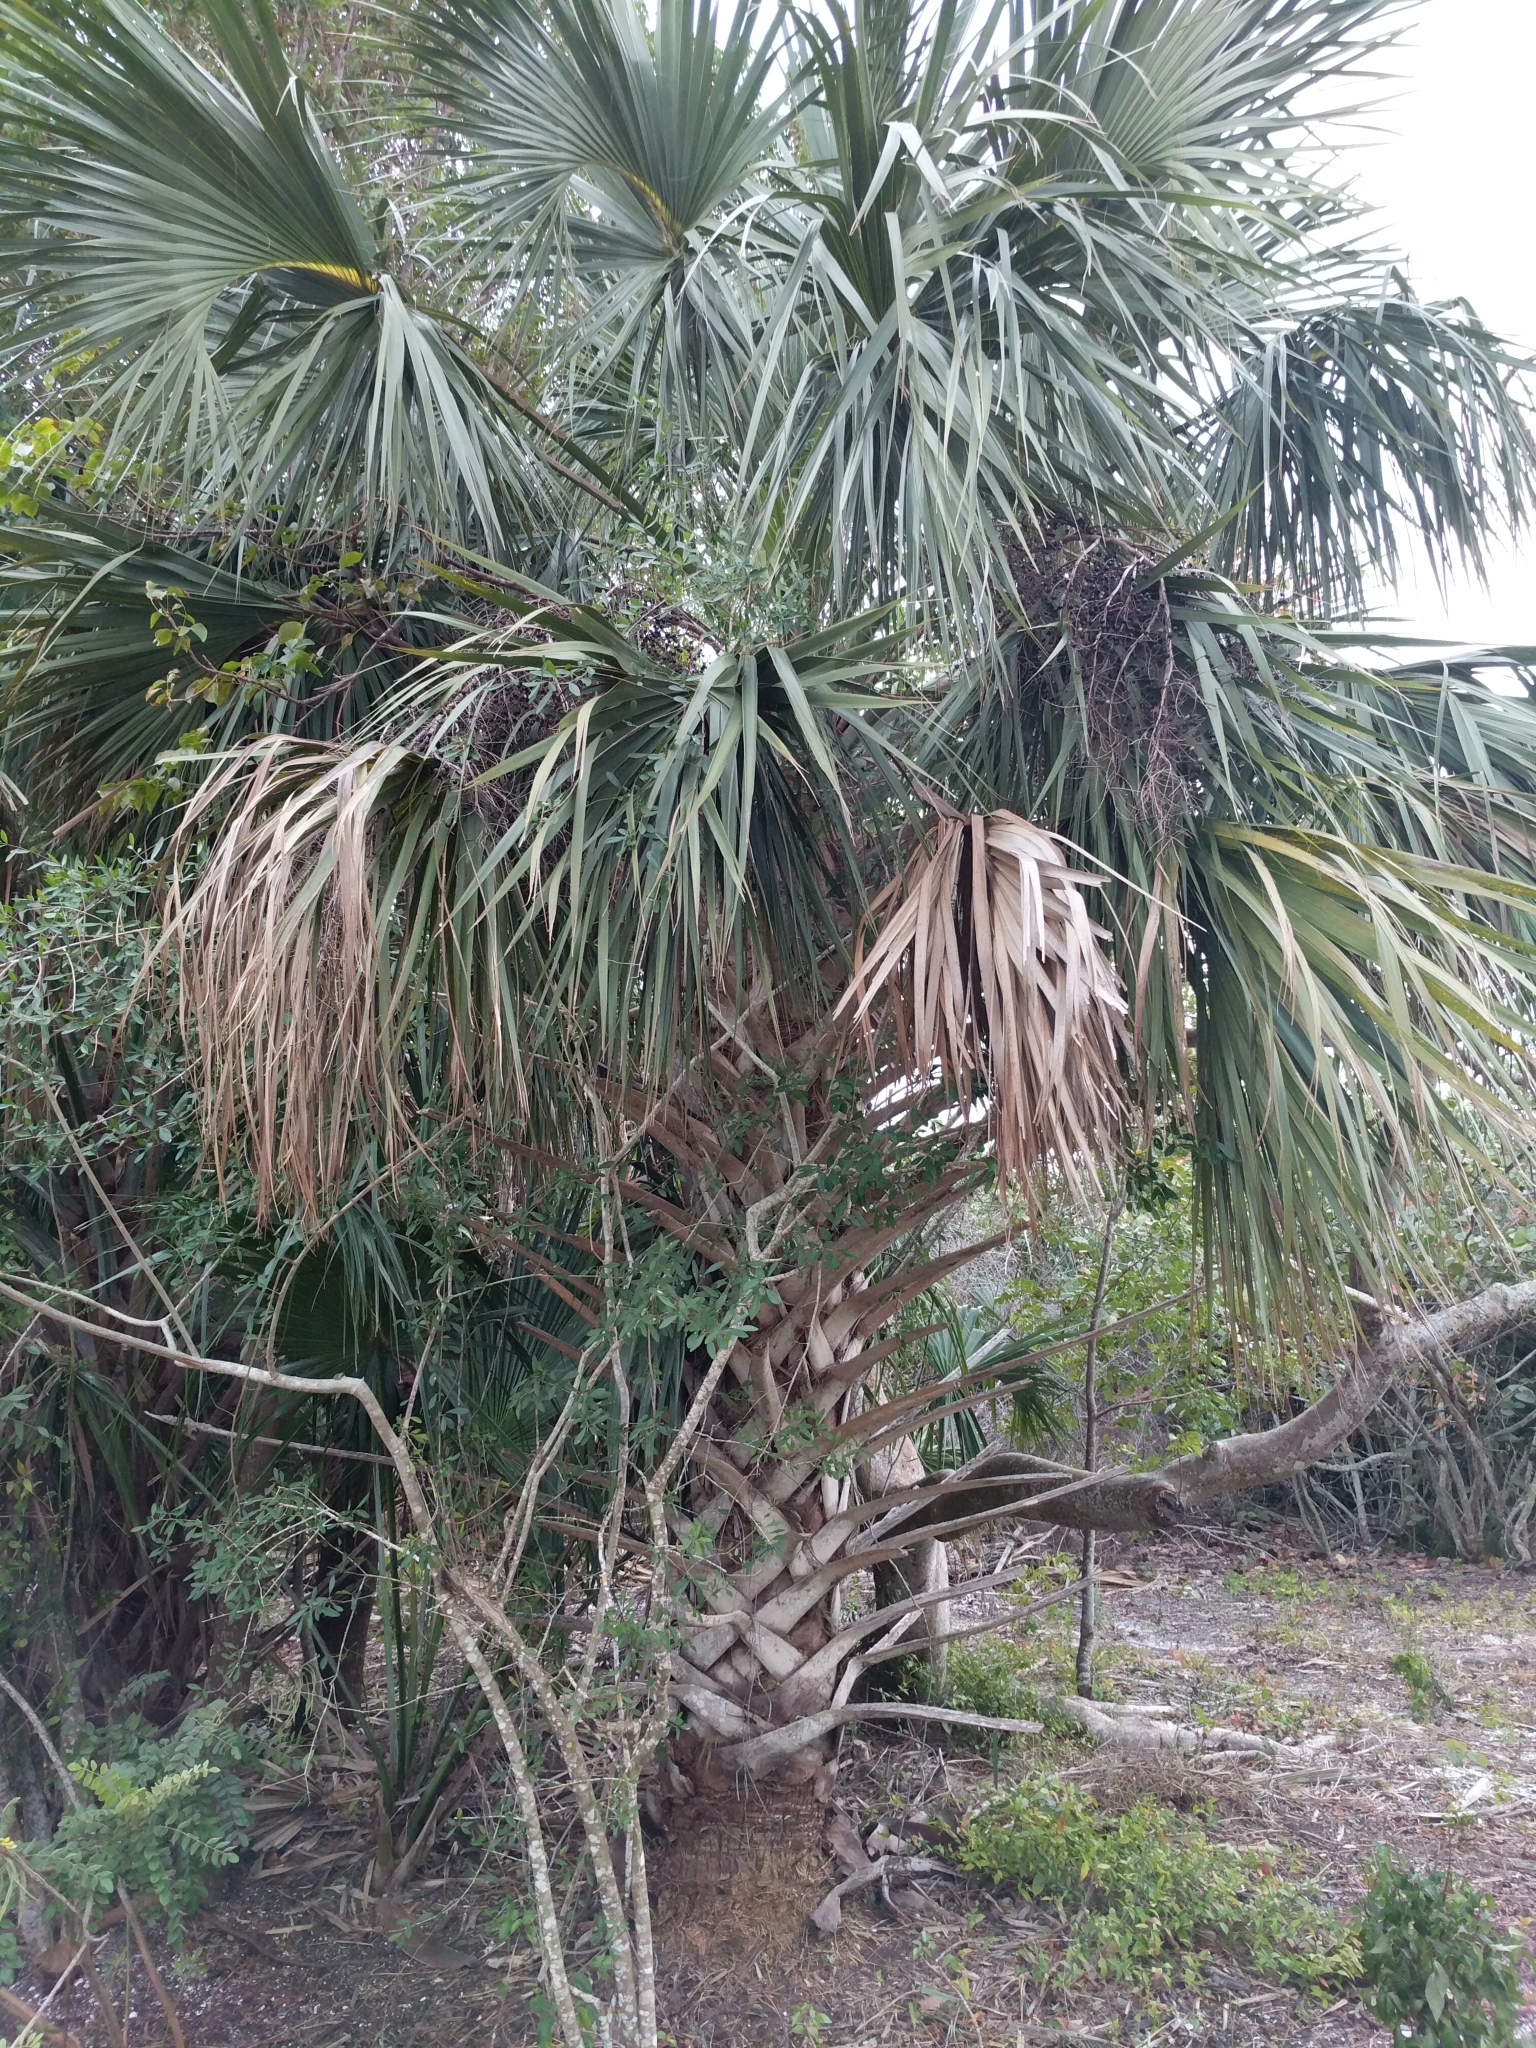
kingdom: Plantae
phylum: Tracheophyta
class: Liliopsida
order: Arecales
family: Arecaceae
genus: Sabal
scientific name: Sabal palmetto
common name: Blue palmetto
